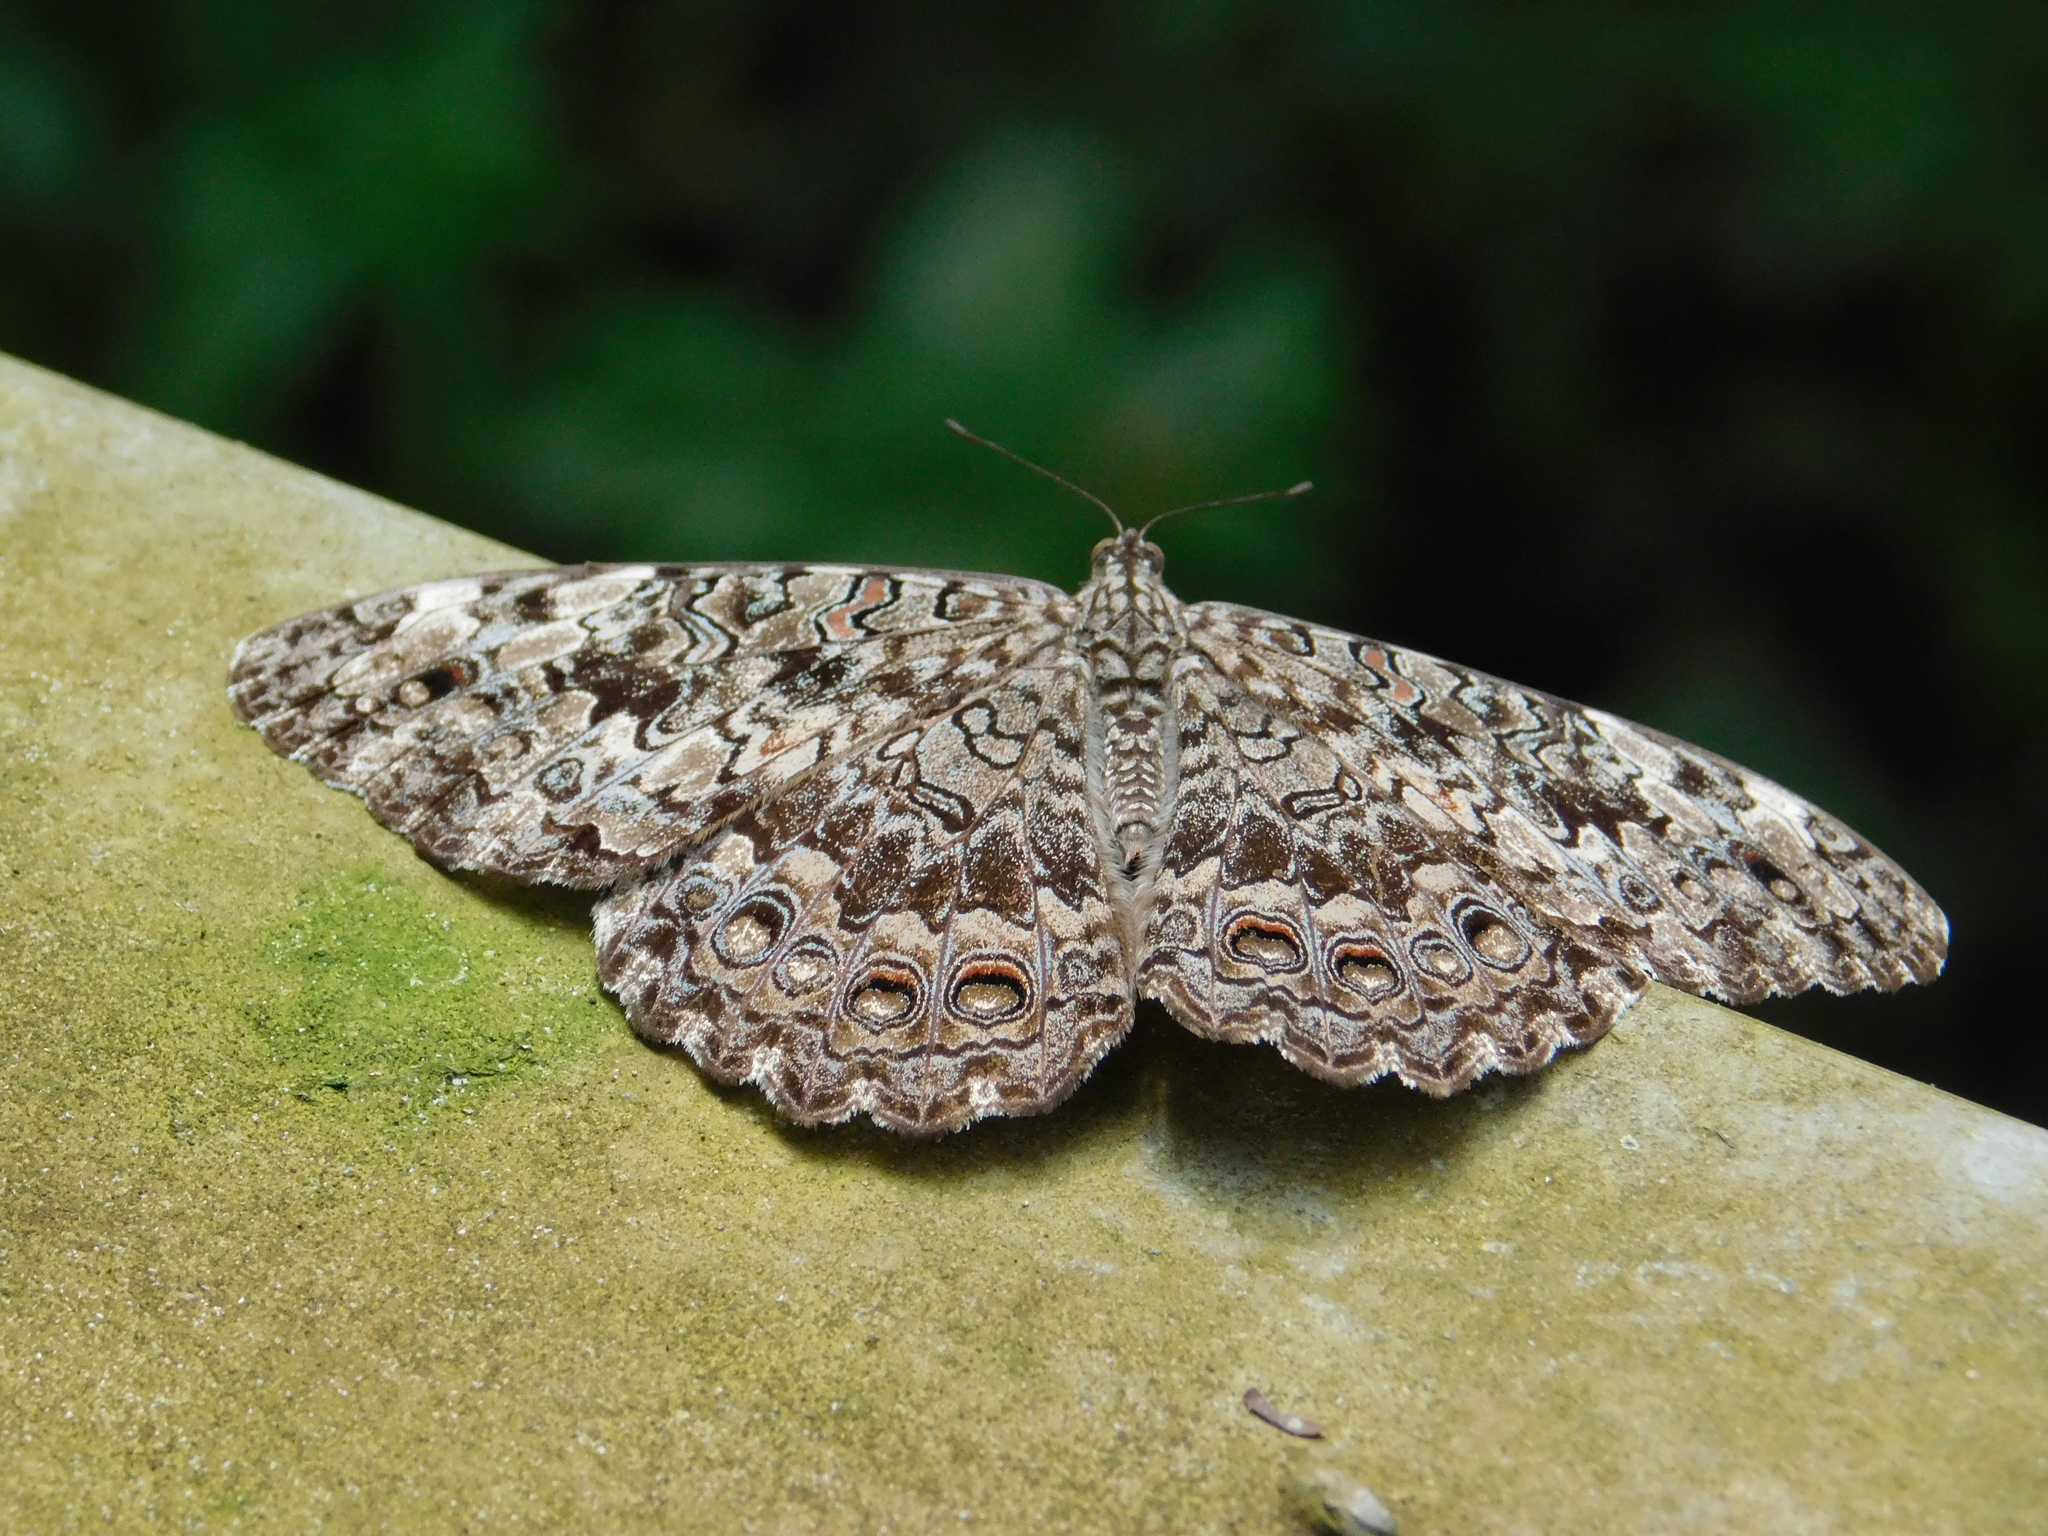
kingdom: Animalia
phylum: Arthropoda
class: Insecta
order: Lepidoptera
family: Nymphalidae
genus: Hamadryas
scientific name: Hamadryas februa
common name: Gray cracker
